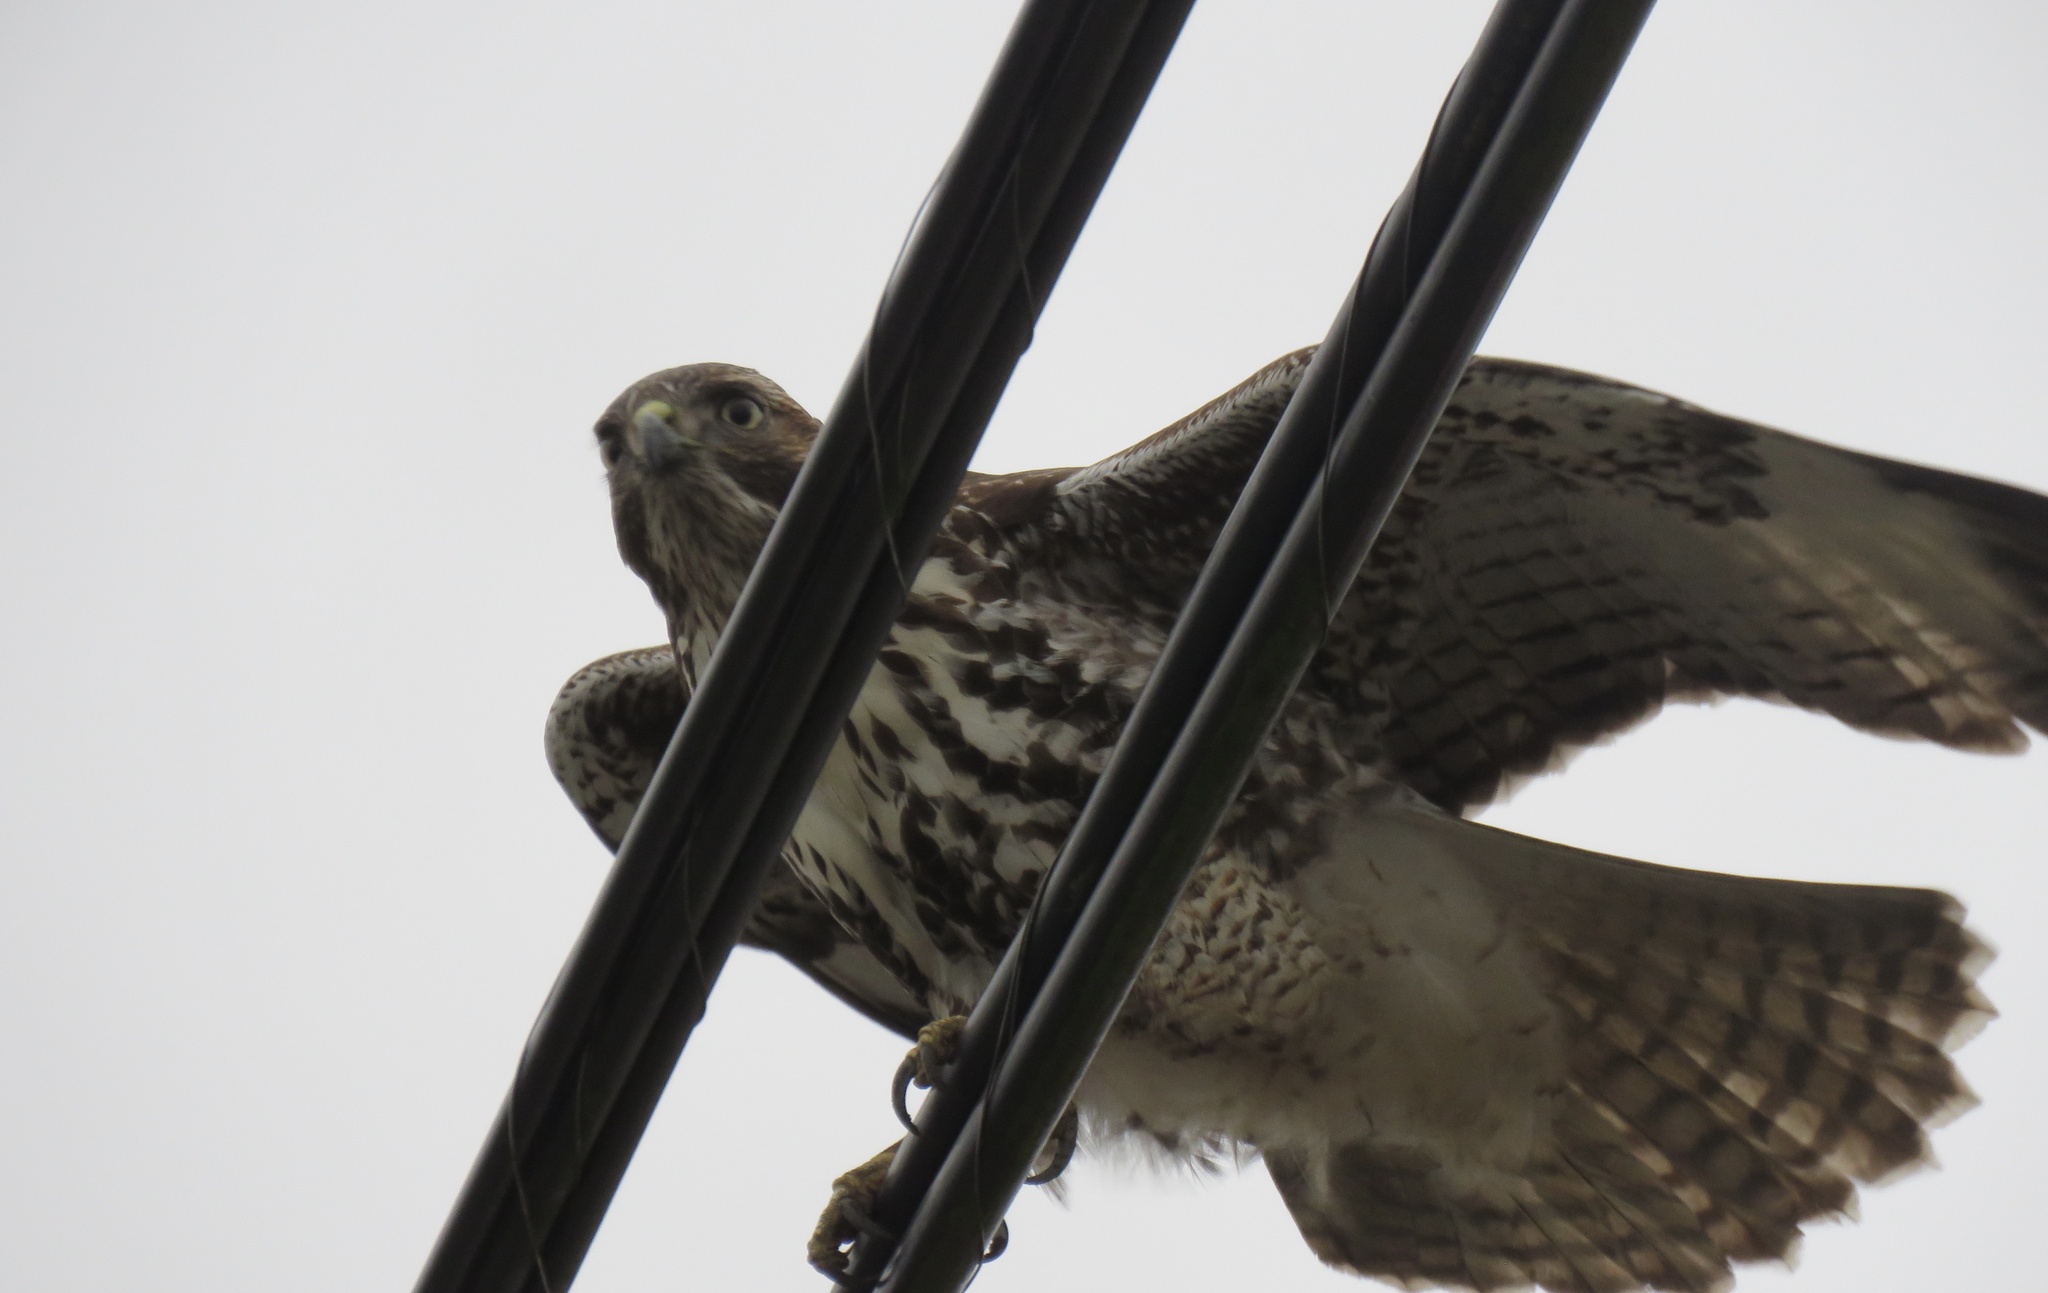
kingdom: Animalia
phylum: Chordata
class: Aves
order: Accipitriformes
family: Accipitridae
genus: Buteo
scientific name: Buteo jamaicensis
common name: Red-tailed hawk
